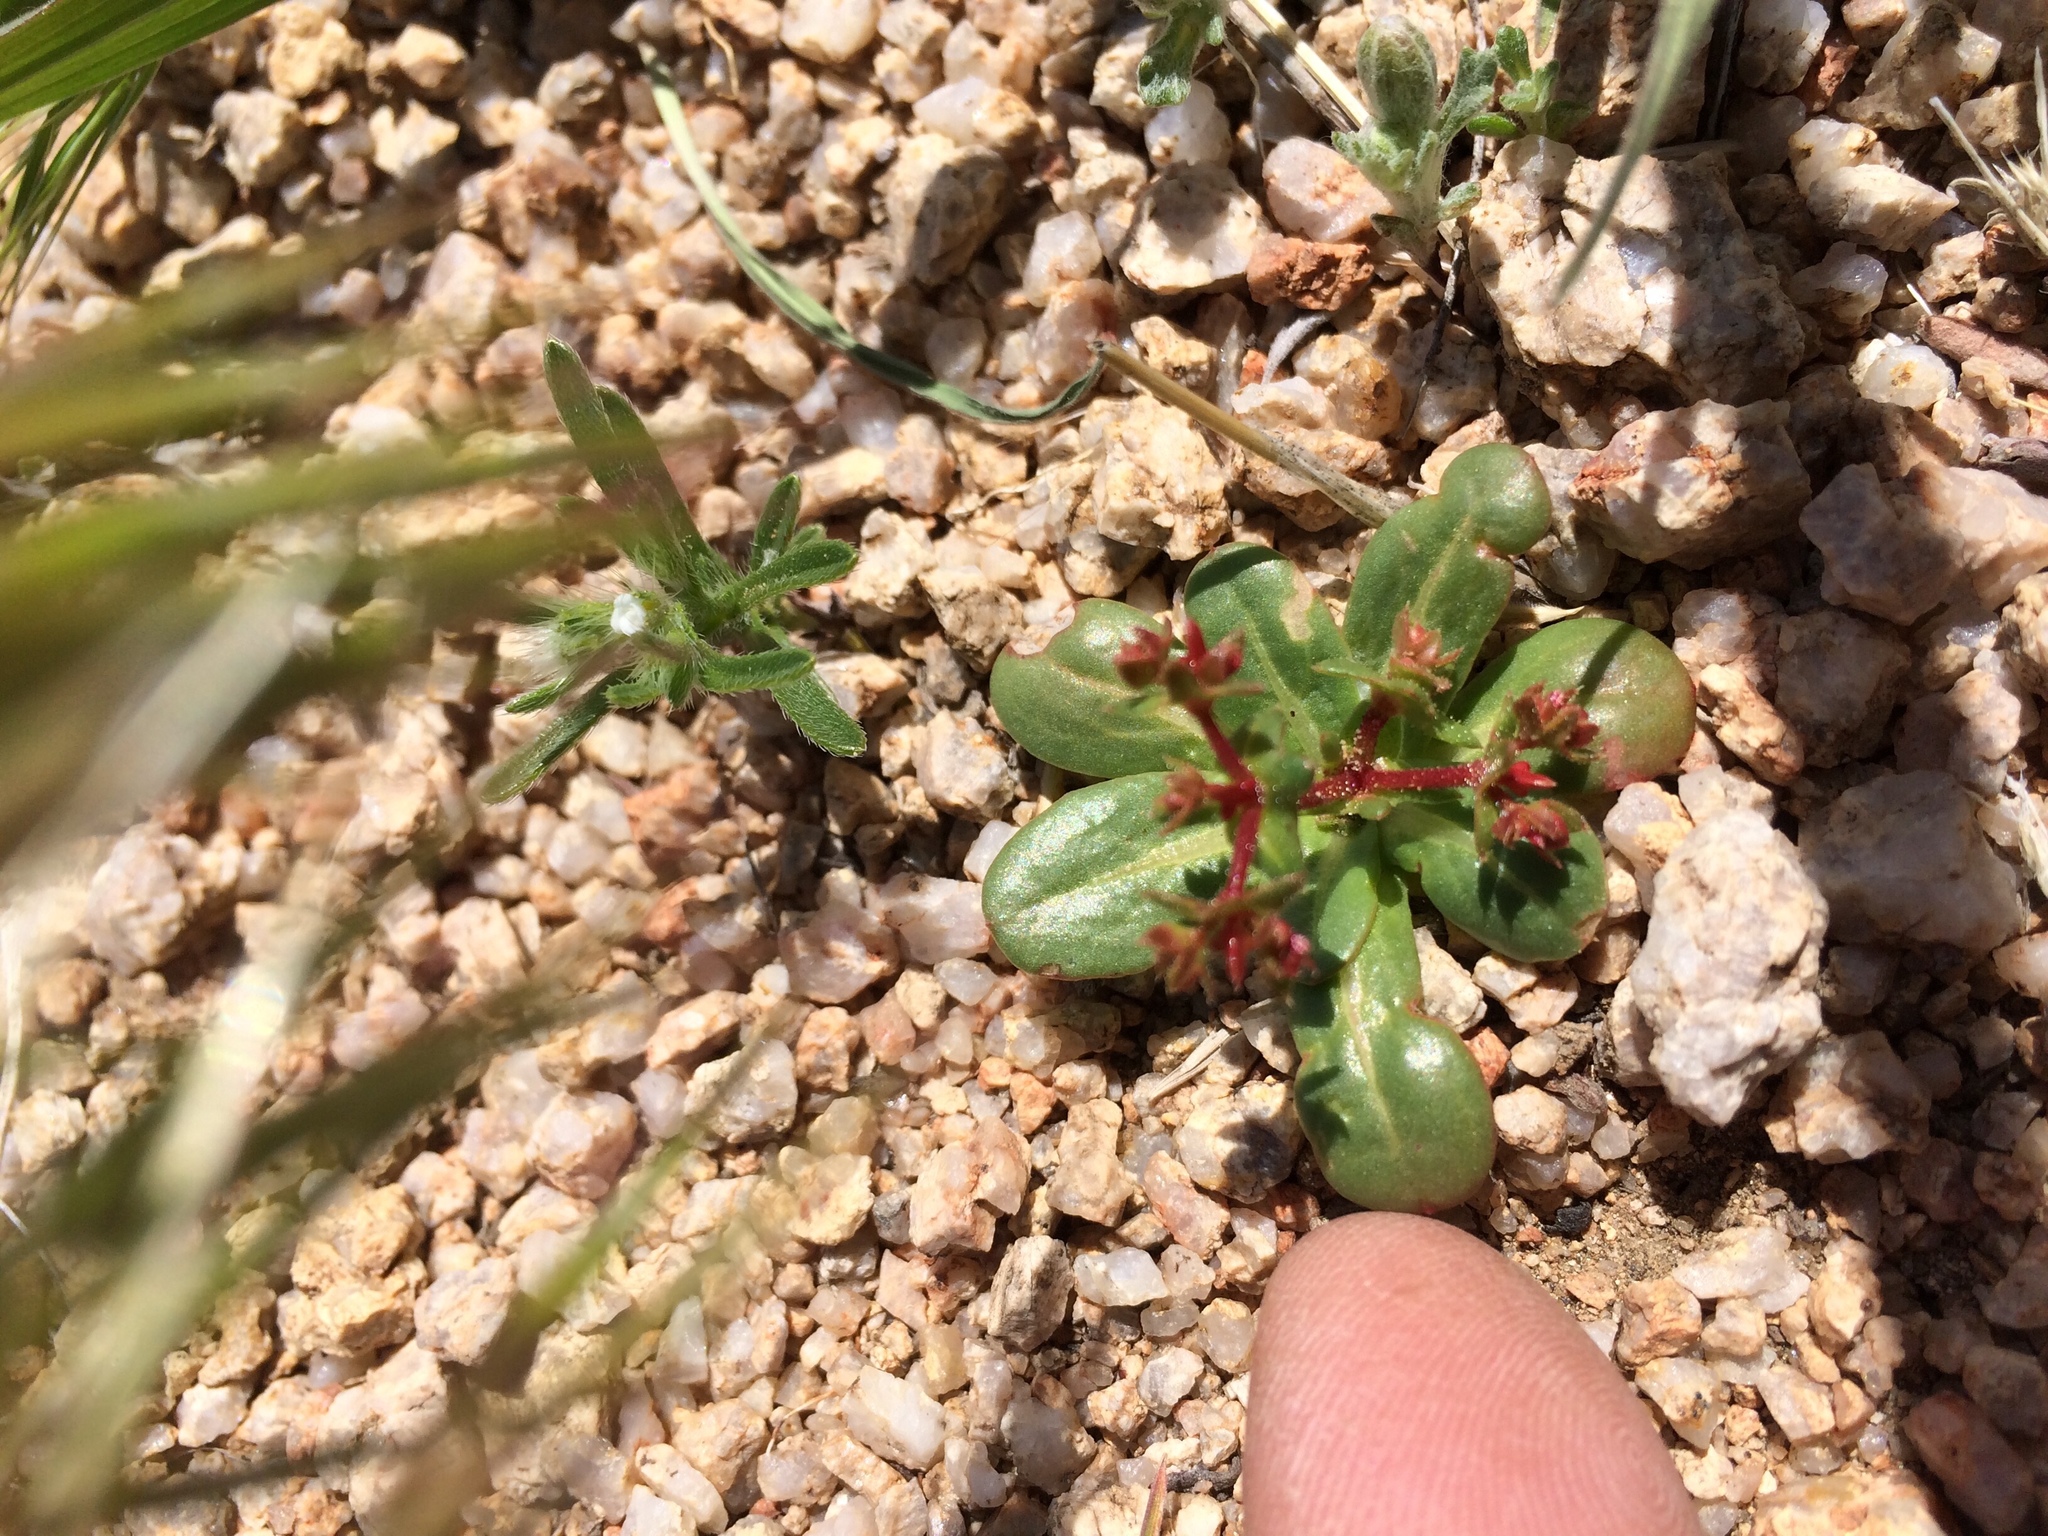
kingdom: Plantae
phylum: Tracheophyta
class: Magnoliopsida
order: Caryophyllales
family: Polygonaceae
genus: Centrostegia
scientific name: Centrostegia thurberi
